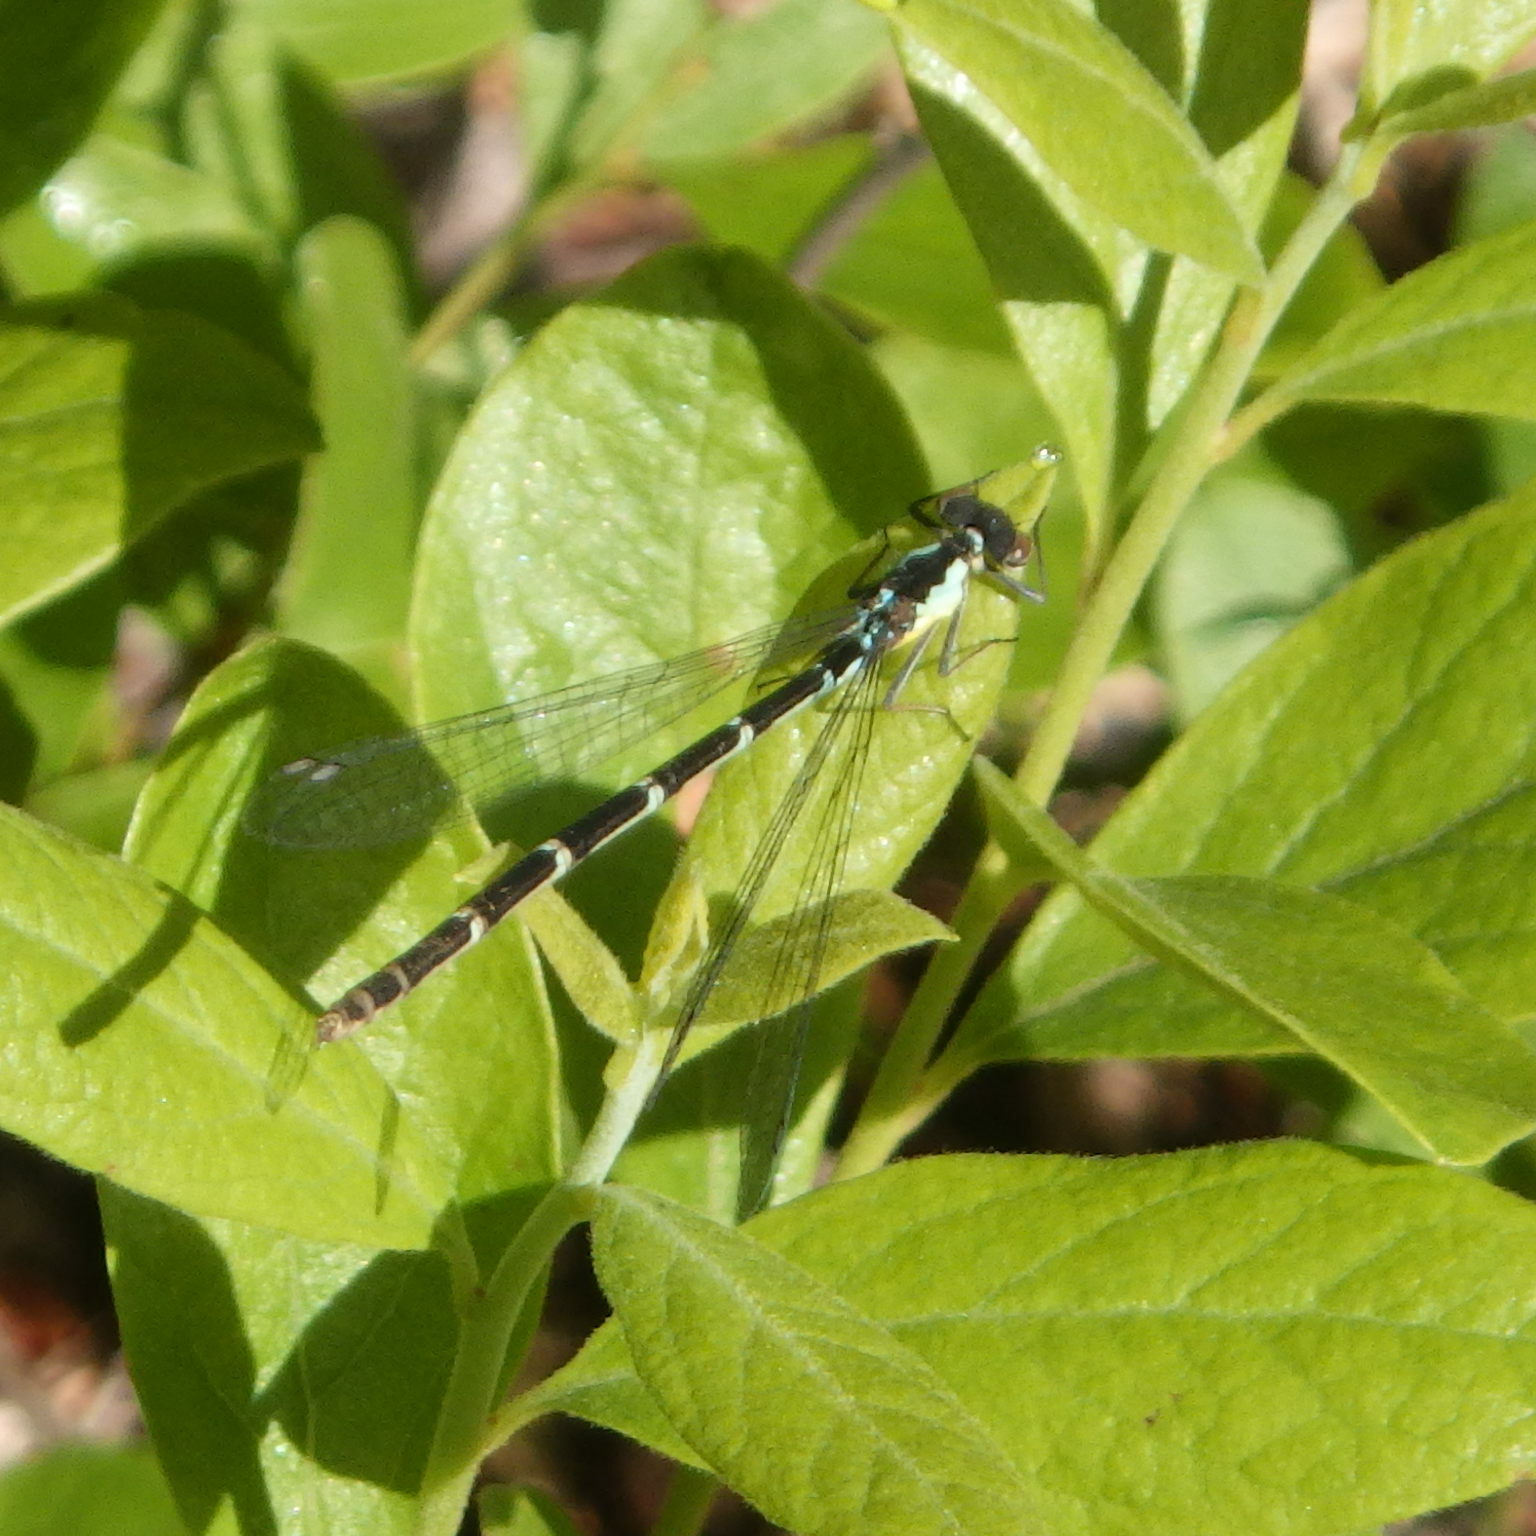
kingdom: Animalia
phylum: Arthropoda
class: Insecta
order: Odonata
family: Coenagrionidae
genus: Chromagrion
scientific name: Chromagrion conditum
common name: Aurora damsel
